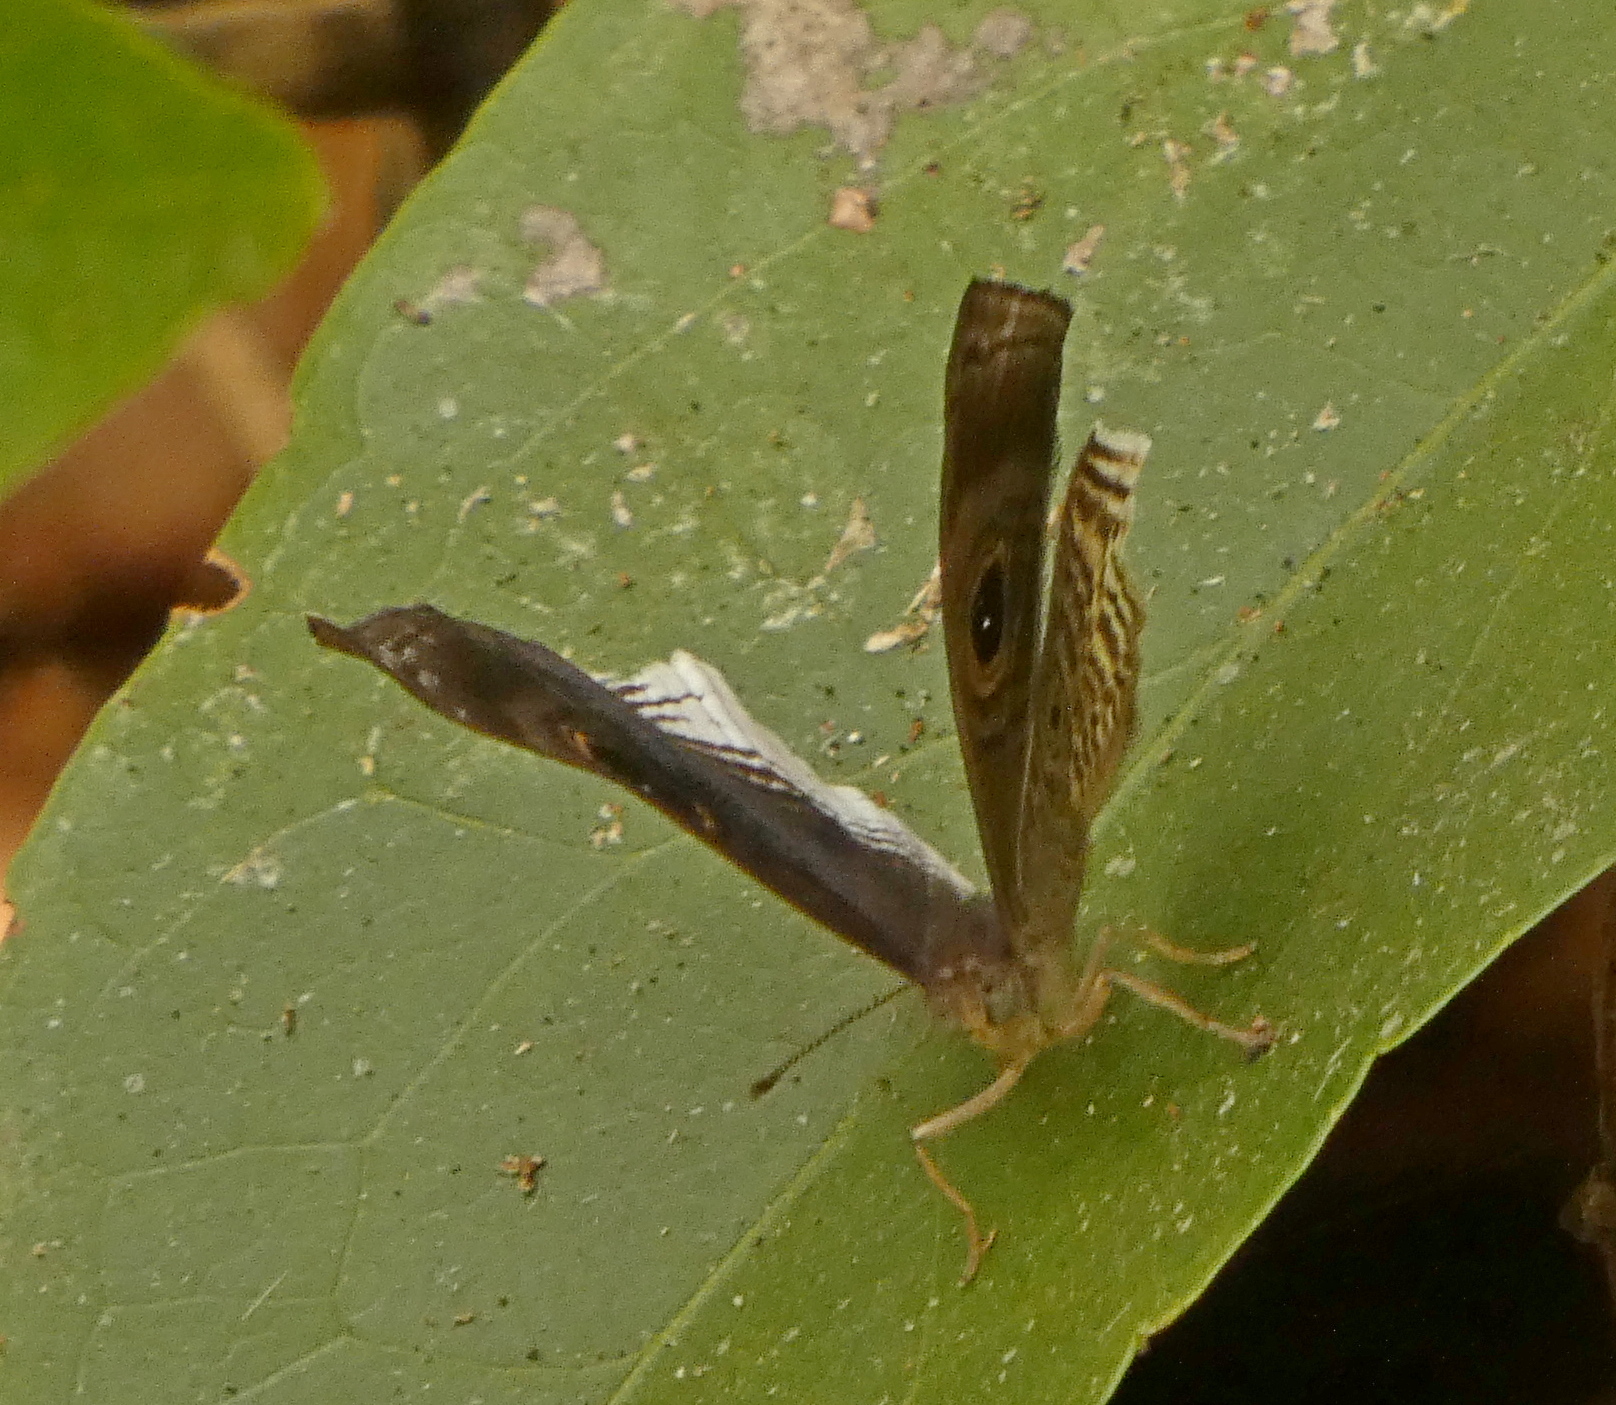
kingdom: Animalia
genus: Mesosemia
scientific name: Mesosemia nyctea
